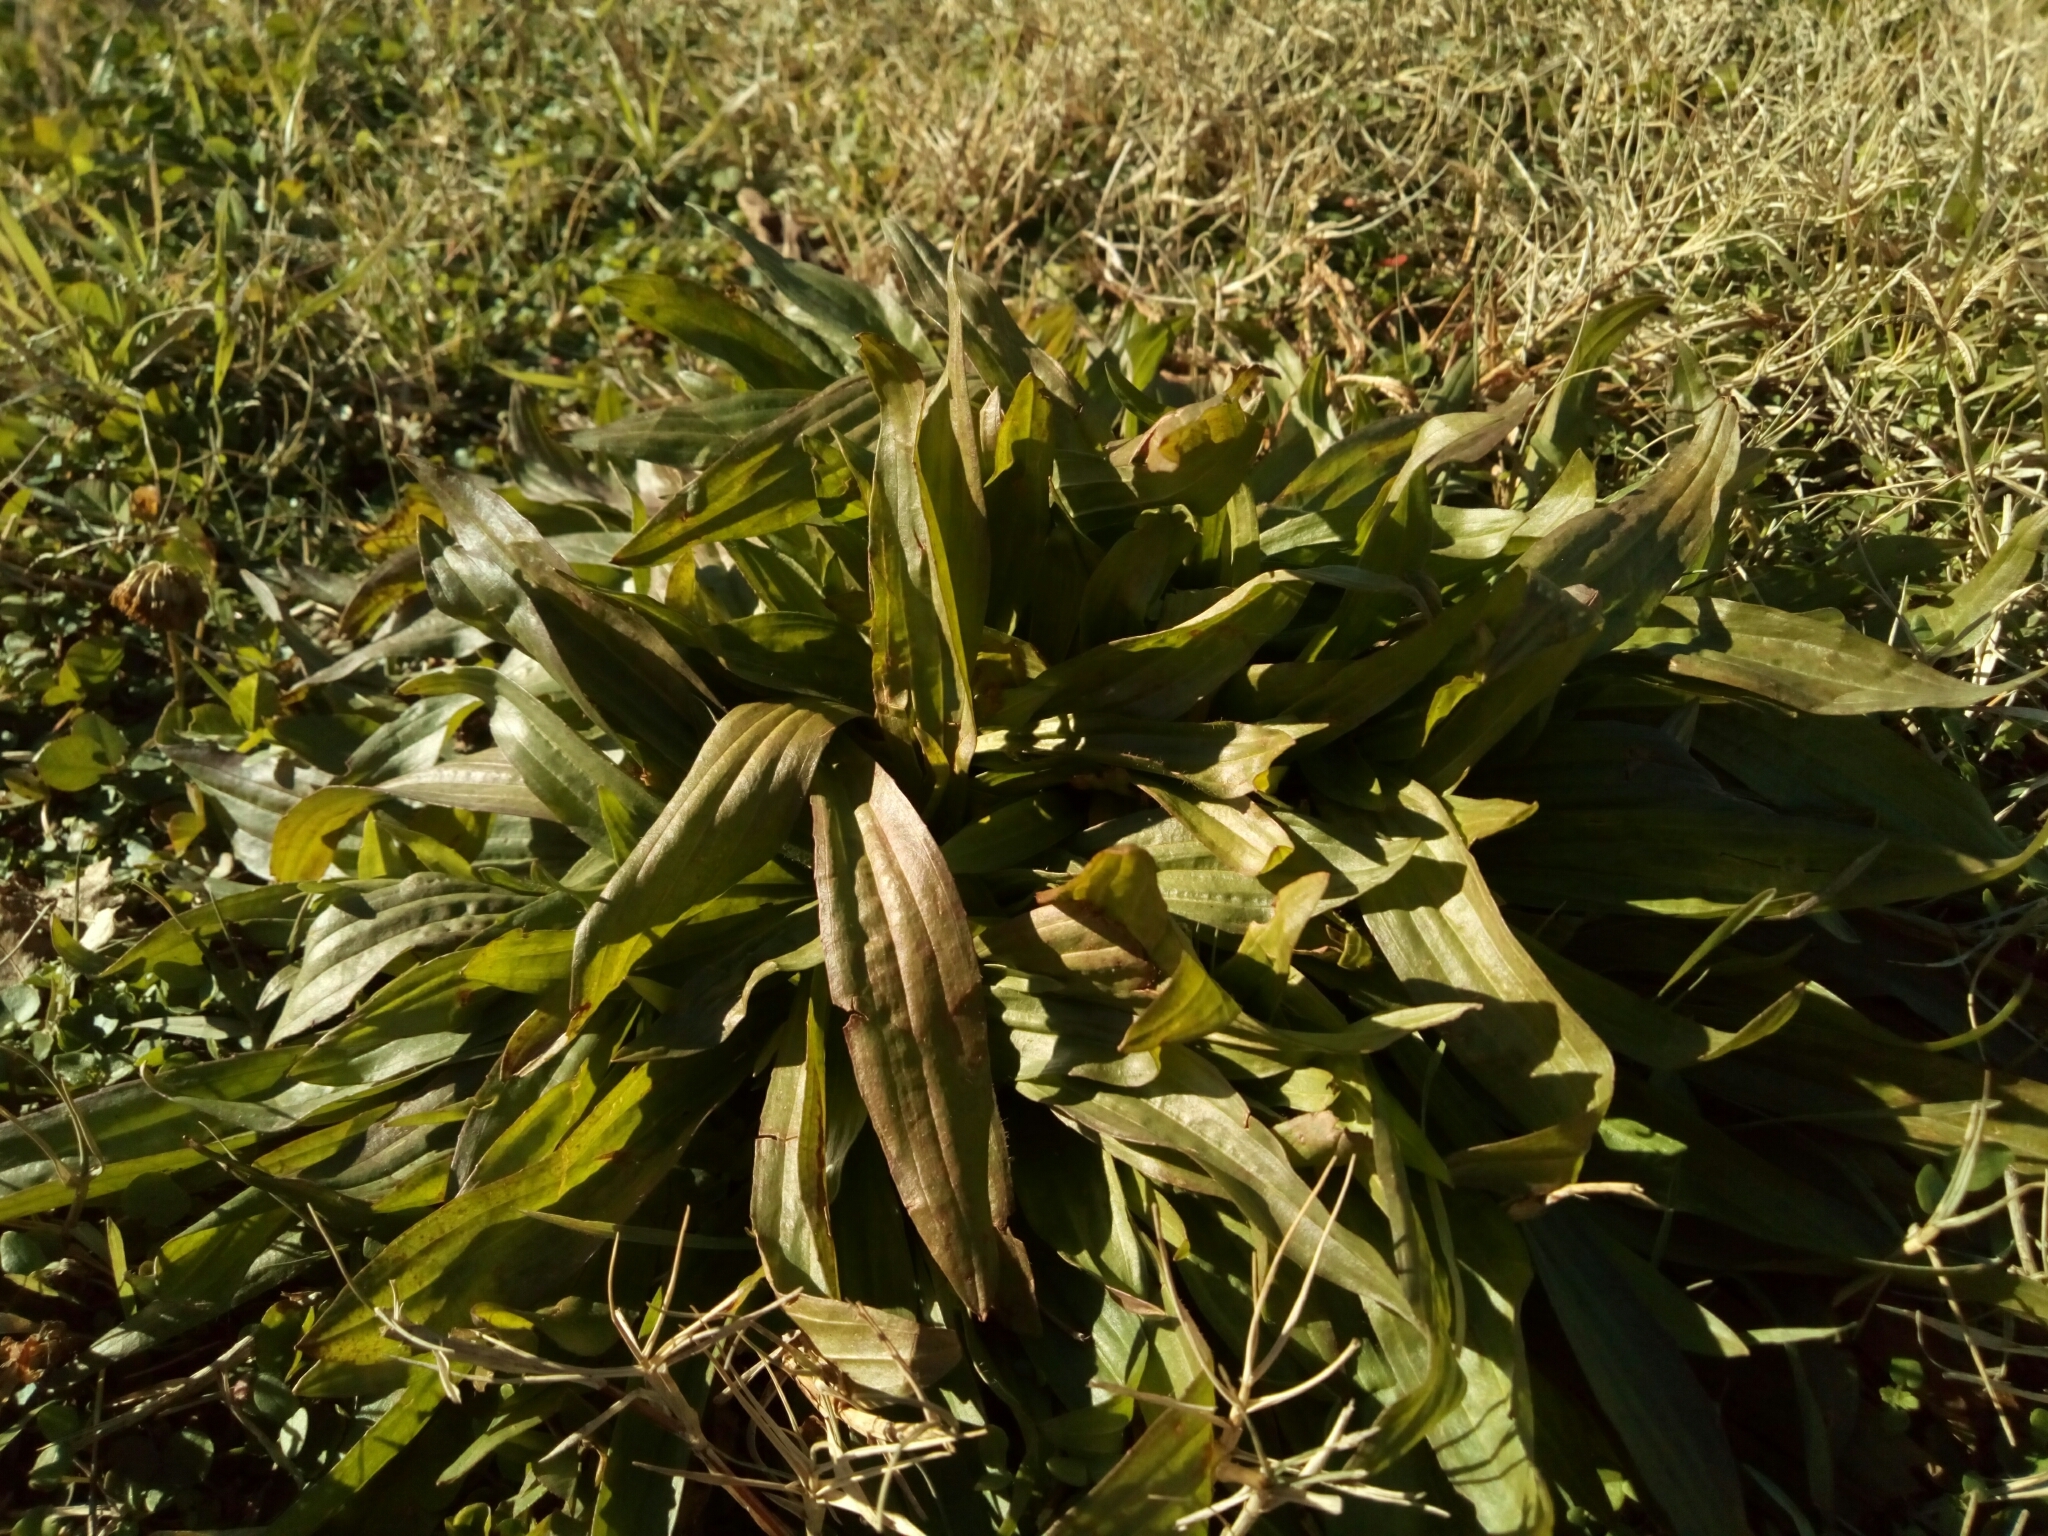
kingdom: Plantae
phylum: Tracheophyta
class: Magnoliopsida
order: Lamiales
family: Plantaginaceae
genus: Plantago
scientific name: Plantago lanceolata
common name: Ribwort plantain
